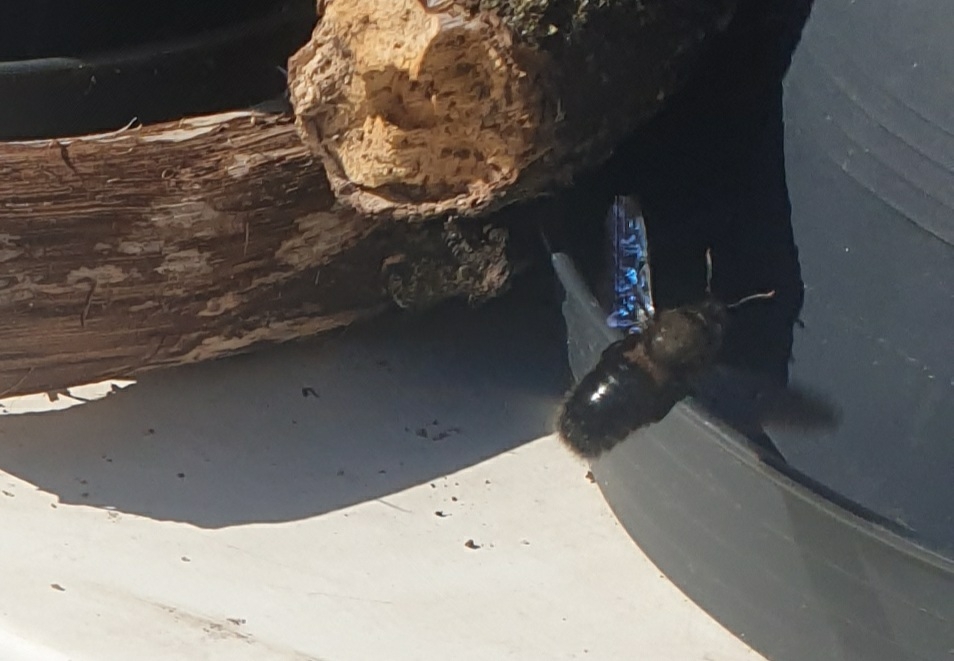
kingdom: Animalia
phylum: Arthropoda
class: Insecta
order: Hymenoptera
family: Apidae
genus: Xylocopa
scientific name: Xylocopa violacea
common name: Violet carpenter bee
